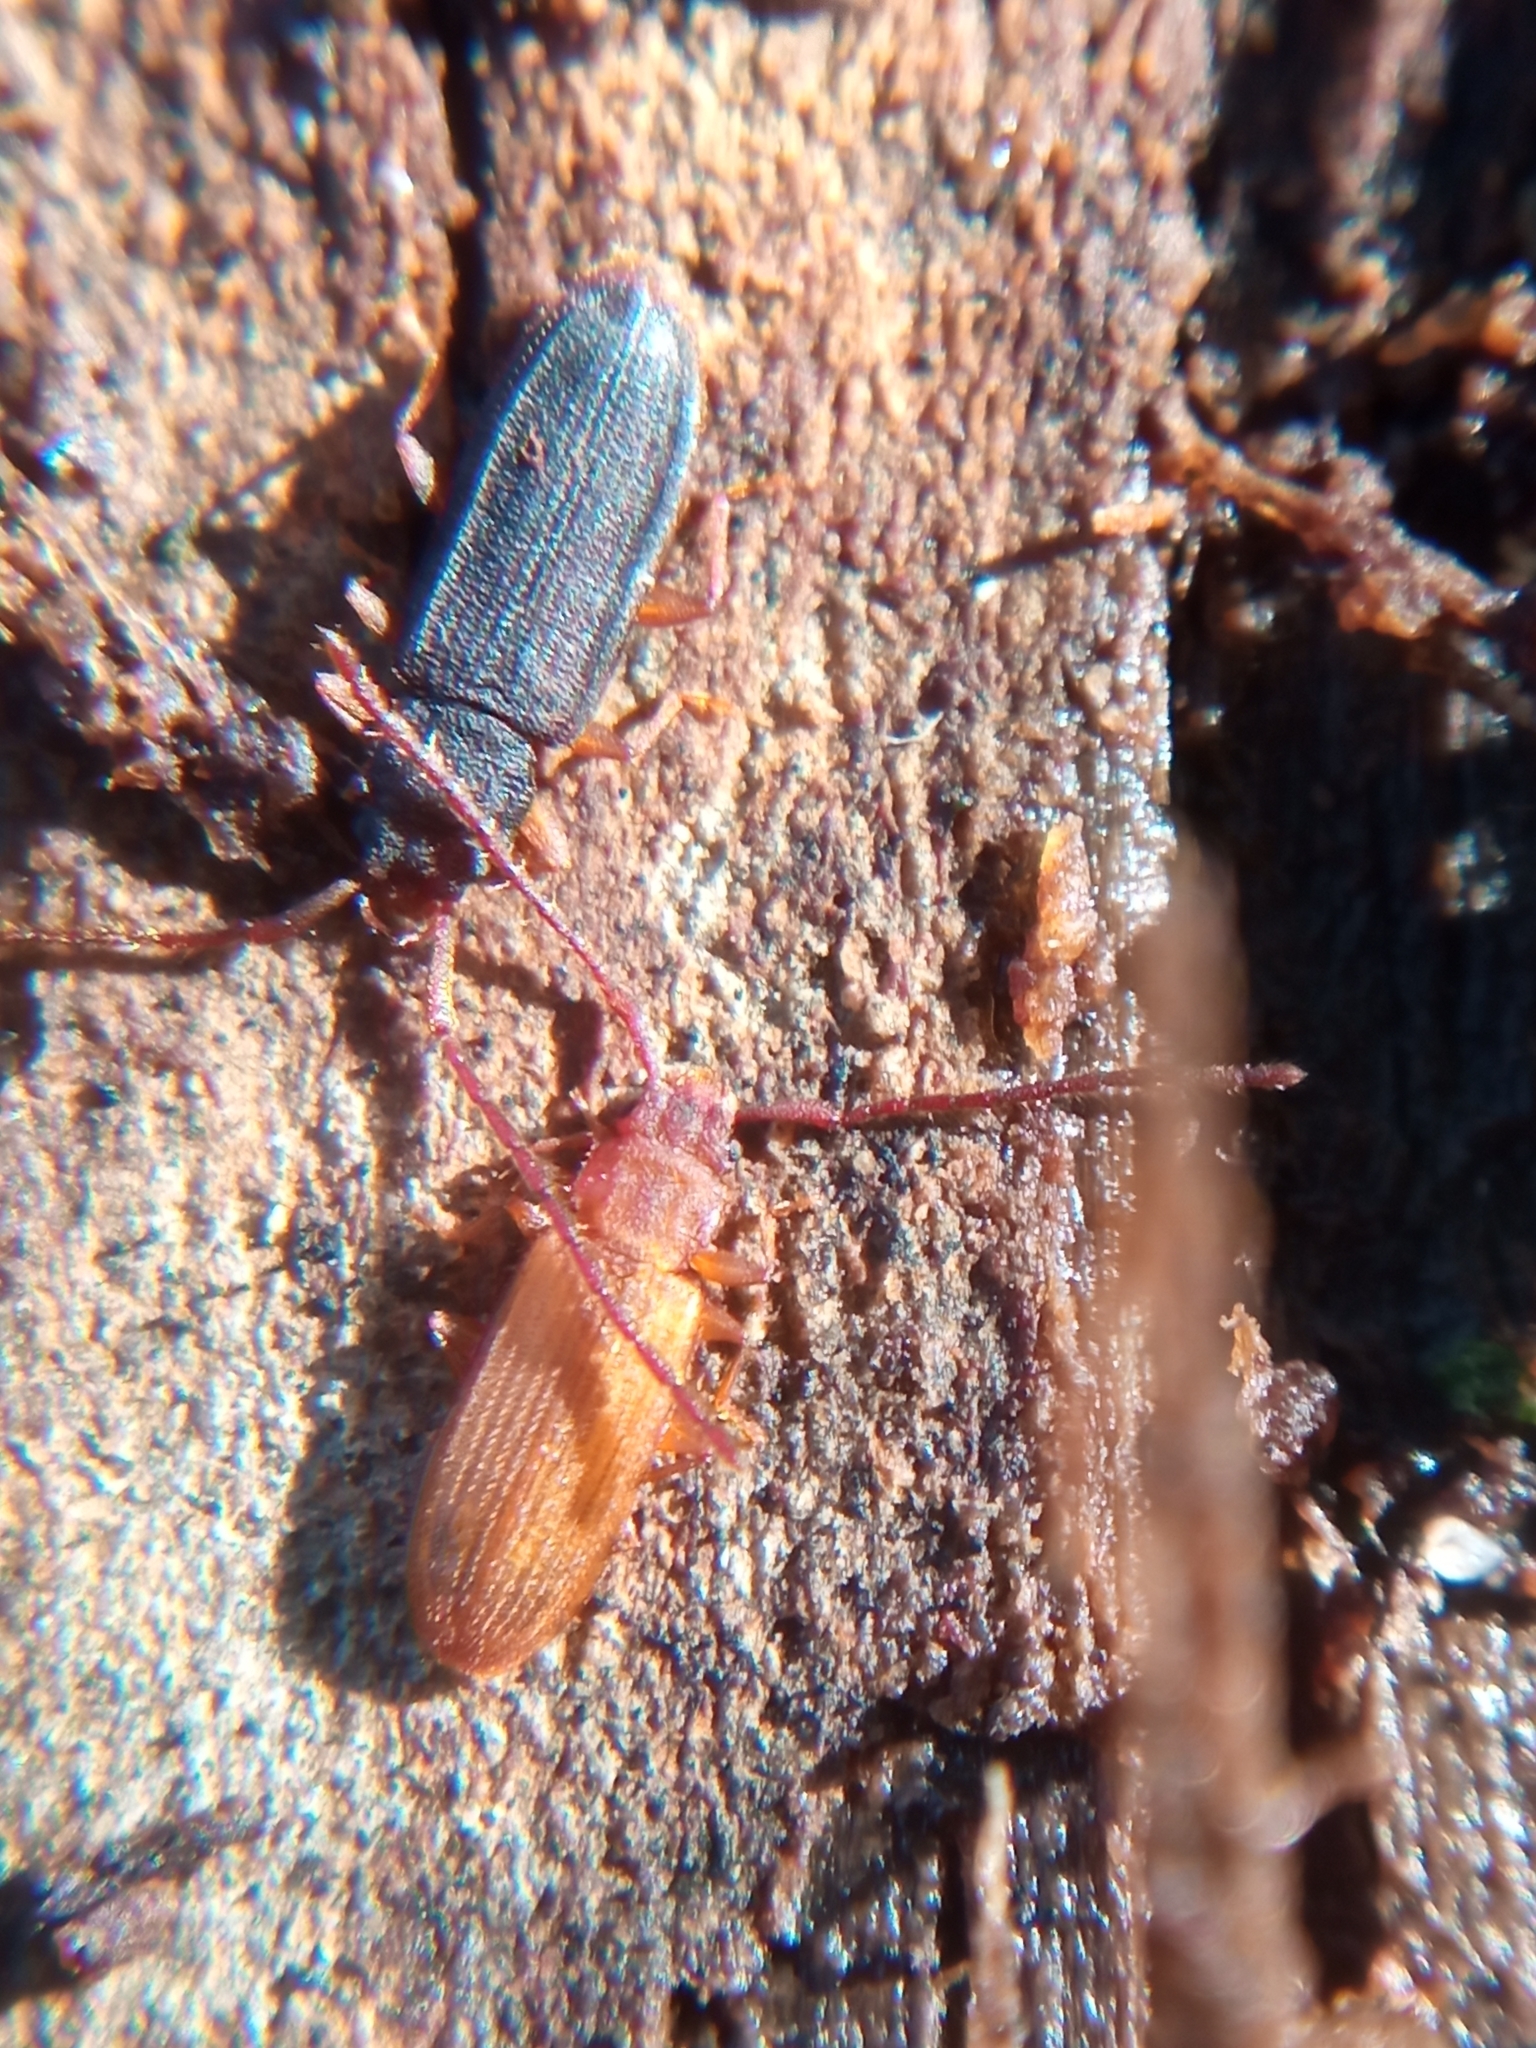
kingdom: Animalia
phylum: Arthropoda
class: Insecta
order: Coleoptera
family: Silvanidae
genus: Uleiota
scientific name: Uleiota planatus
